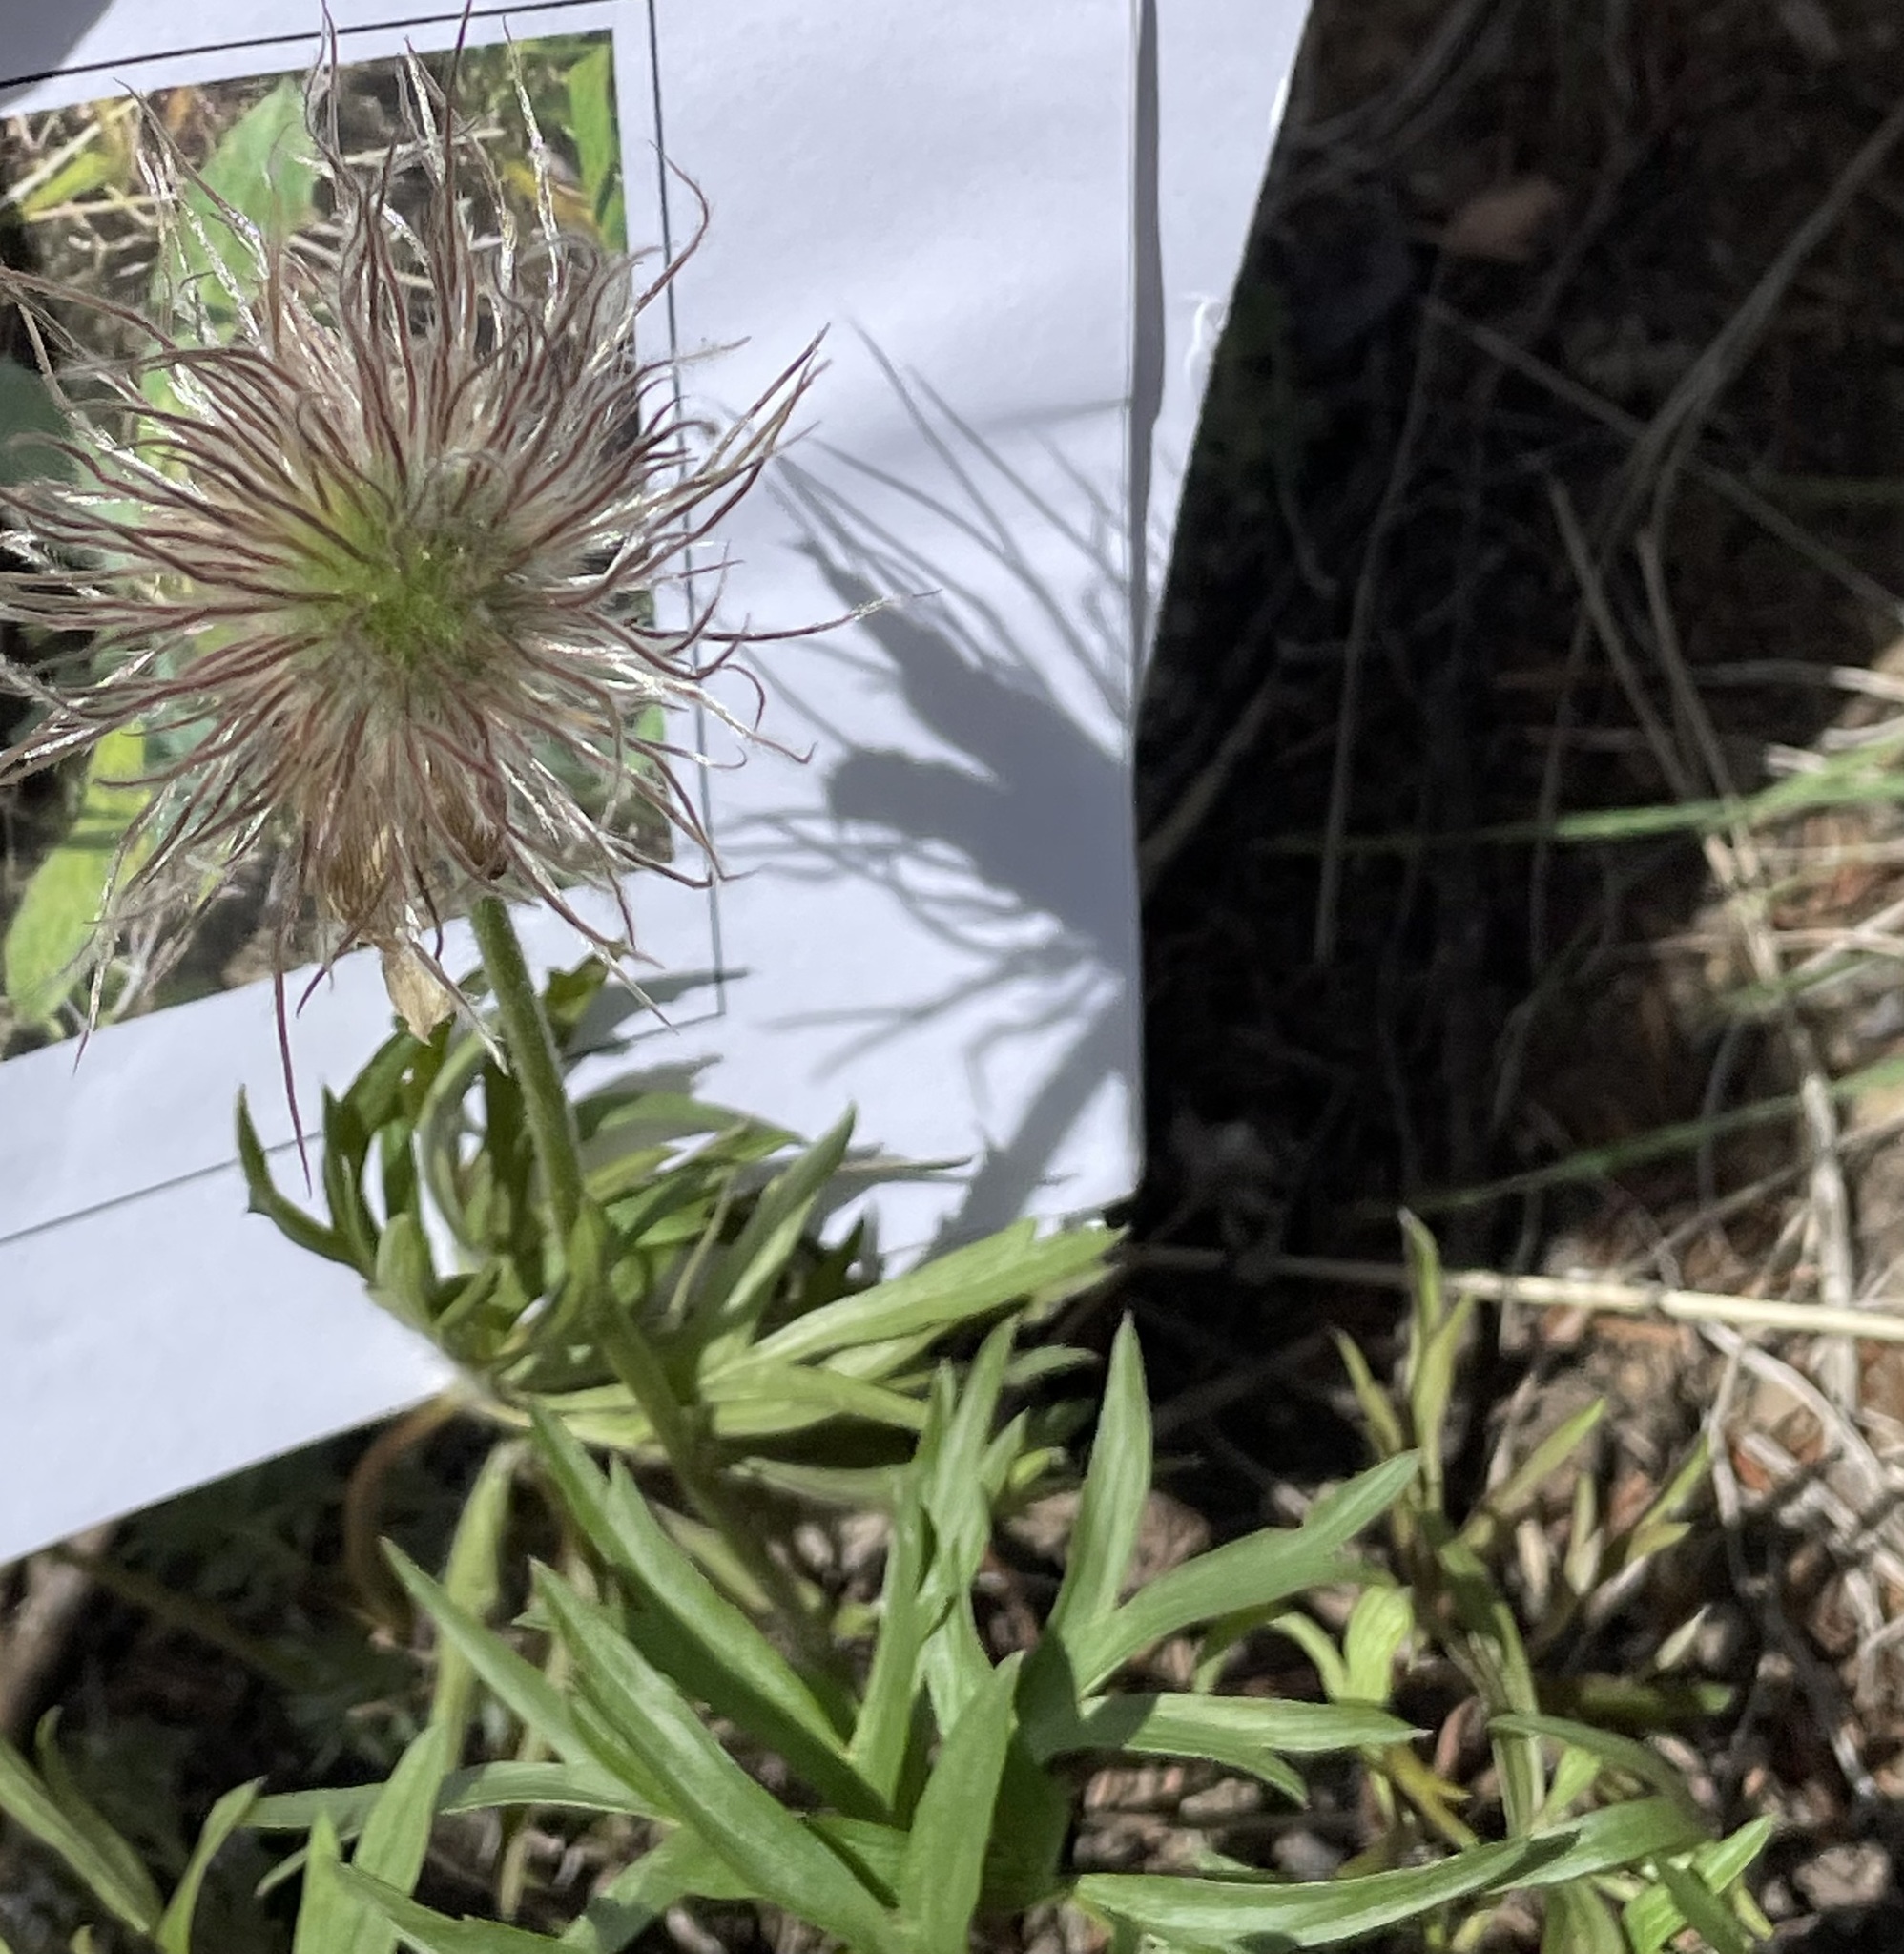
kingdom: Plantae
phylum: Tracheophyta
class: Magnoliopsida
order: Ranunculales
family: Ranunculaceae
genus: Pulsatilla
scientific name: Pulsatilla nuttalliana
